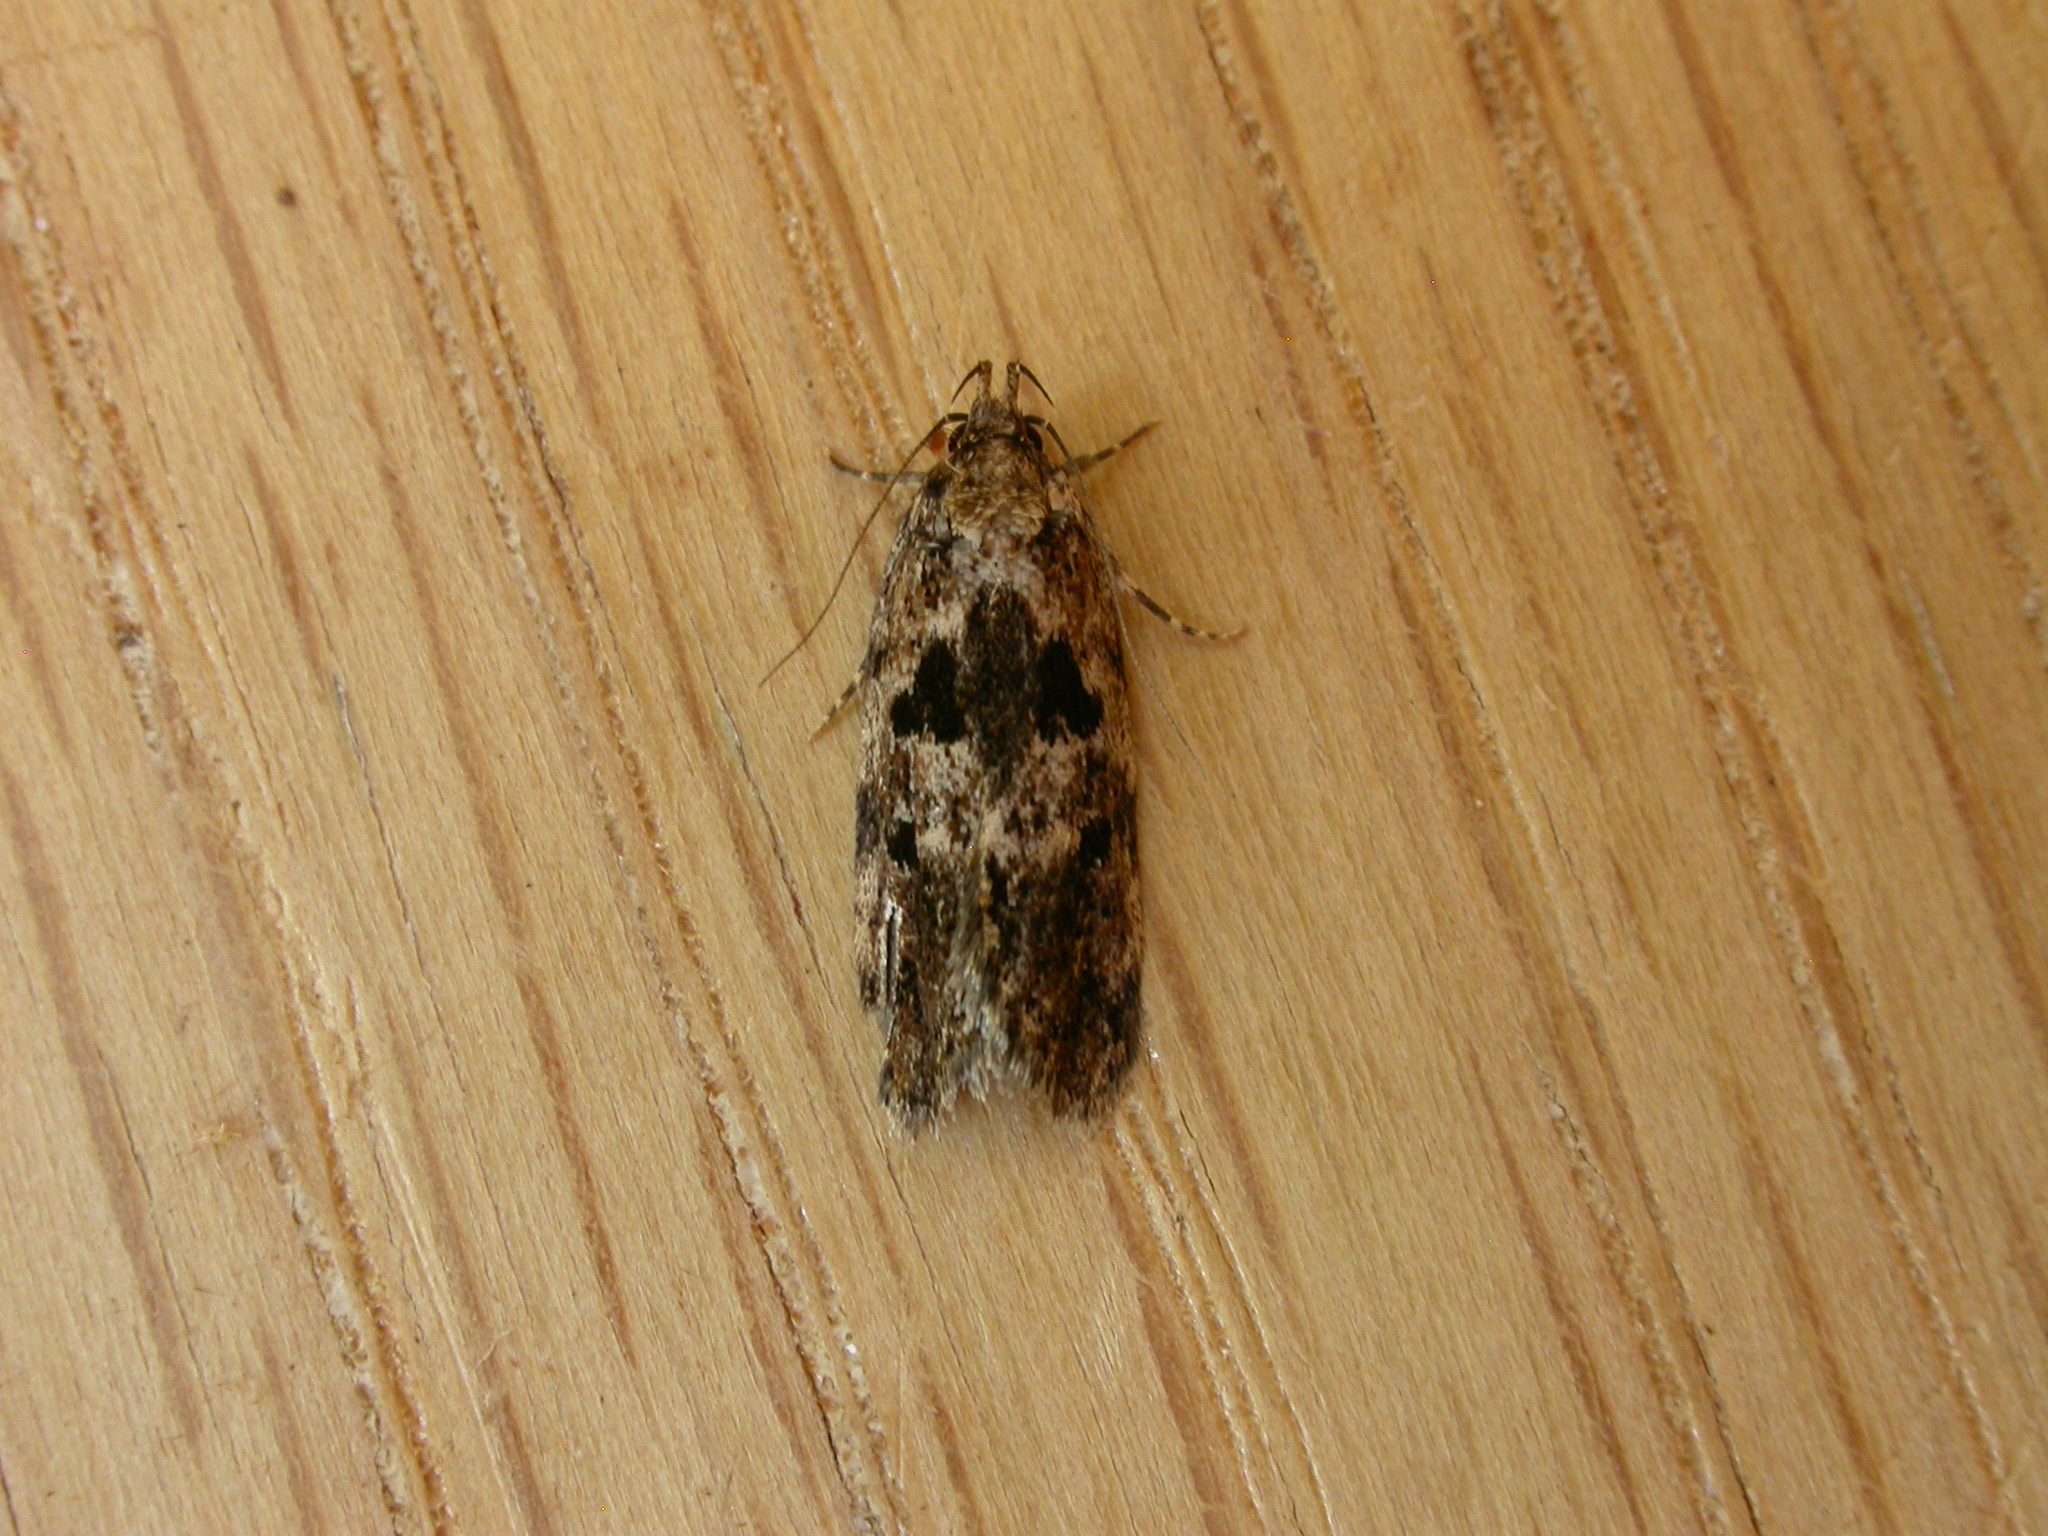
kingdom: Animalia
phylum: Arthropoda
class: Insecta
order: Lepidoptera
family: Oecophoridae
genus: Barea
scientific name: Barea melanodelta
